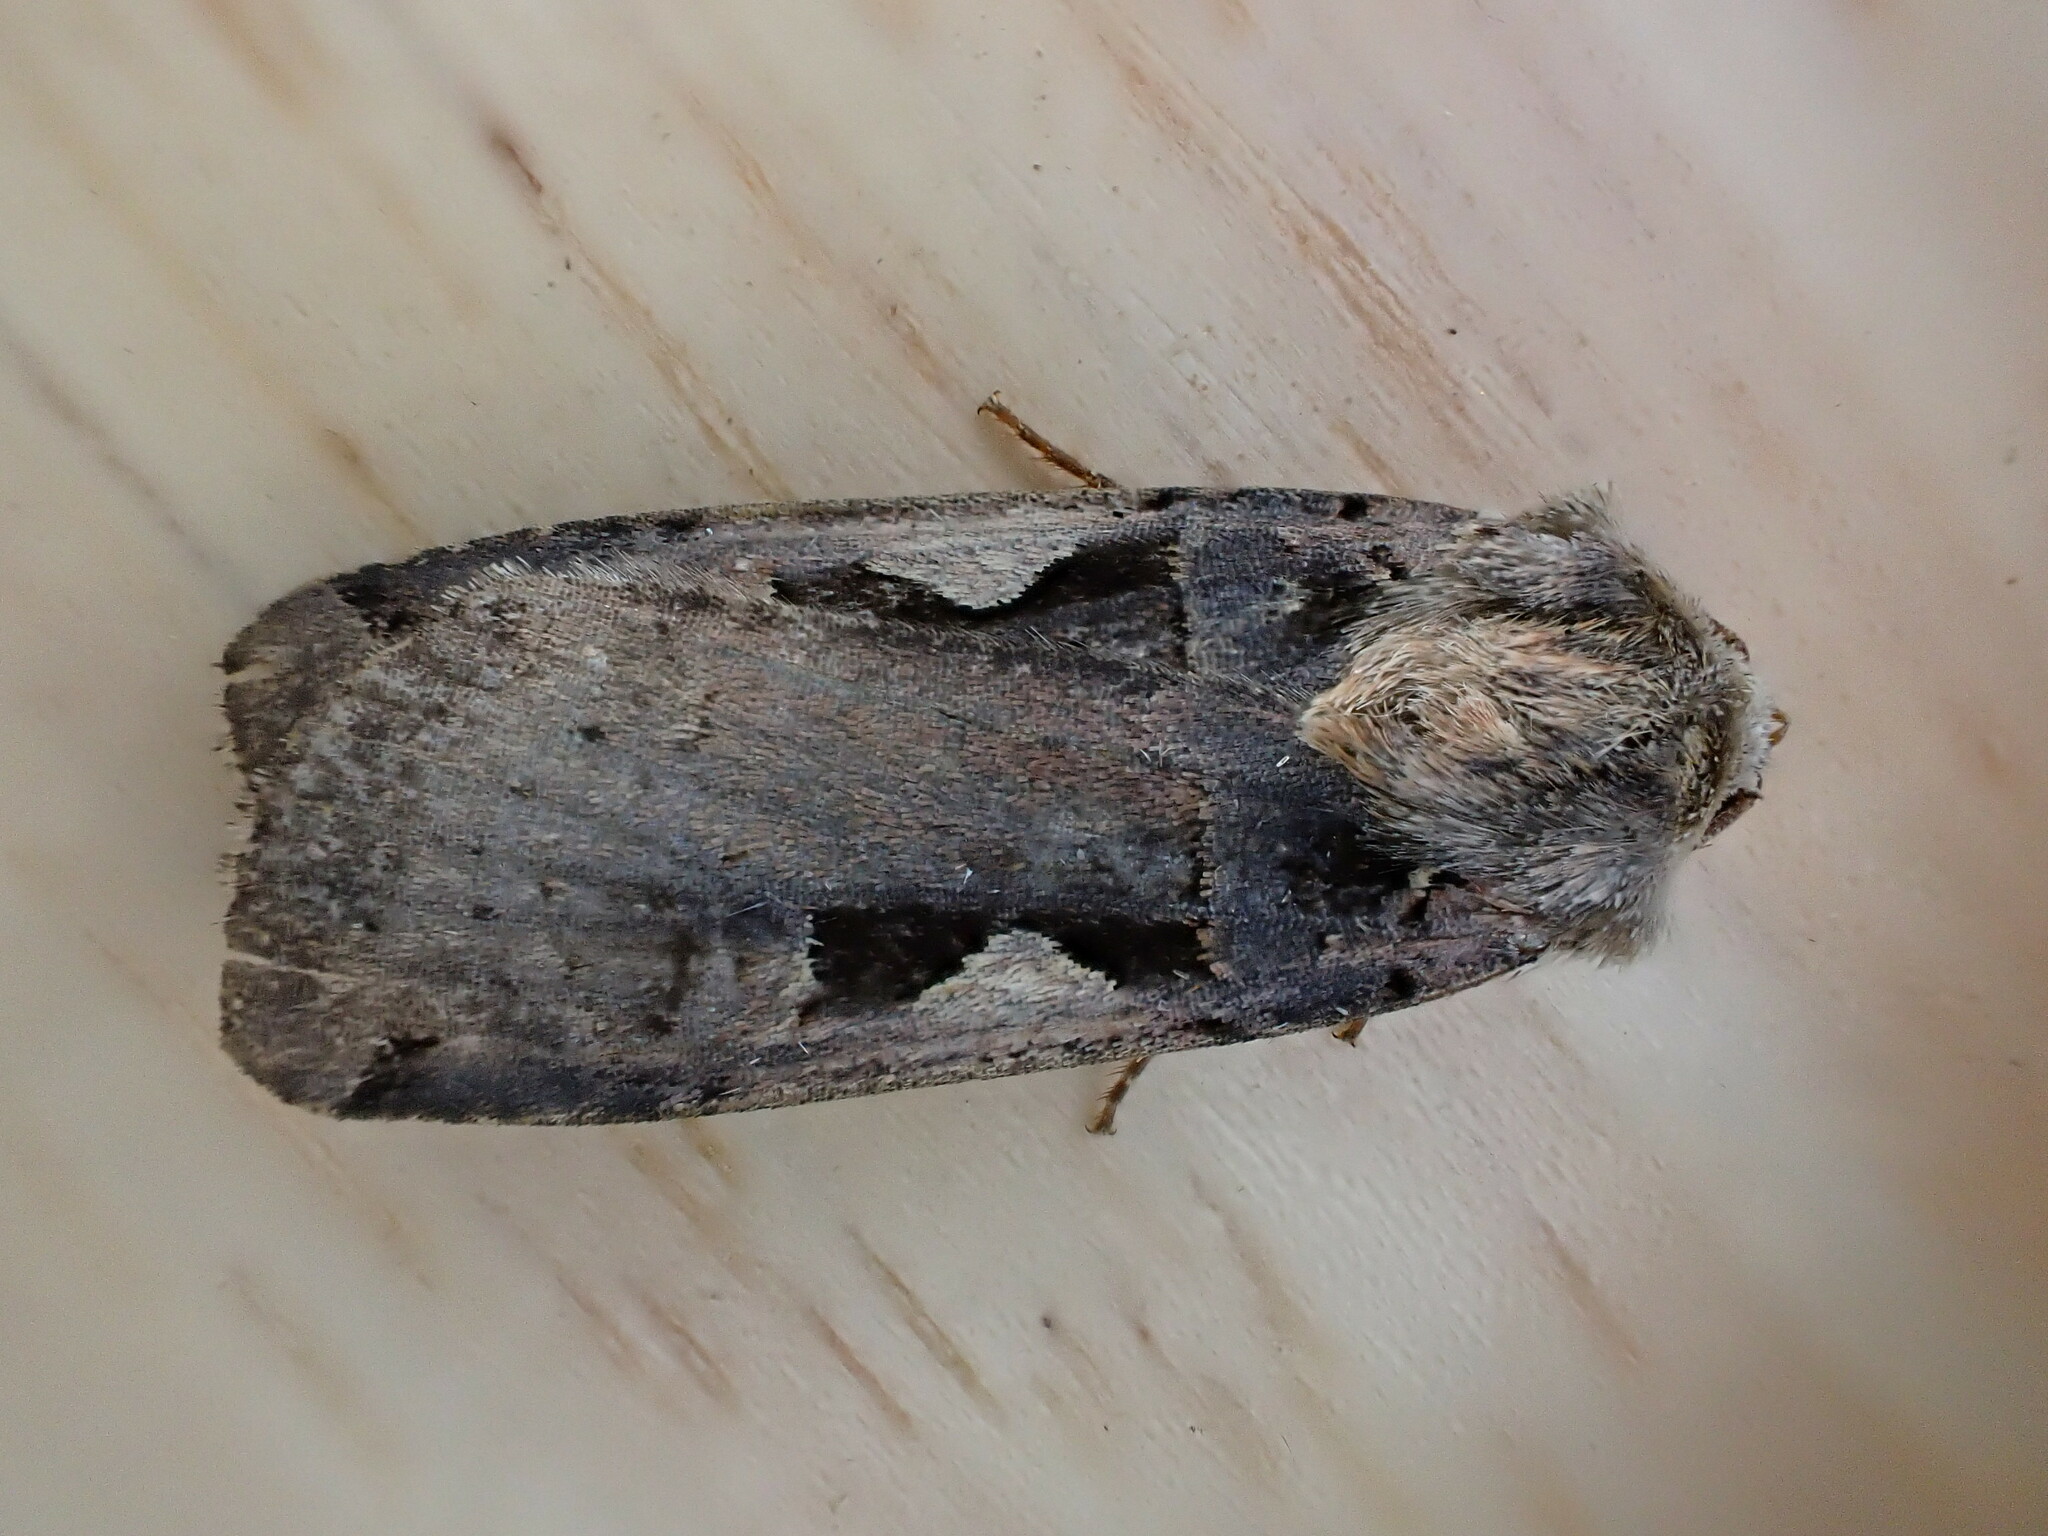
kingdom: Animalia
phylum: Arthropoda
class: Insecta
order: Lepidoptera
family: Noctuidae
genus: Xestia
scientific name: Xestia c-nigrum
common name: Setaceous hebrew character
